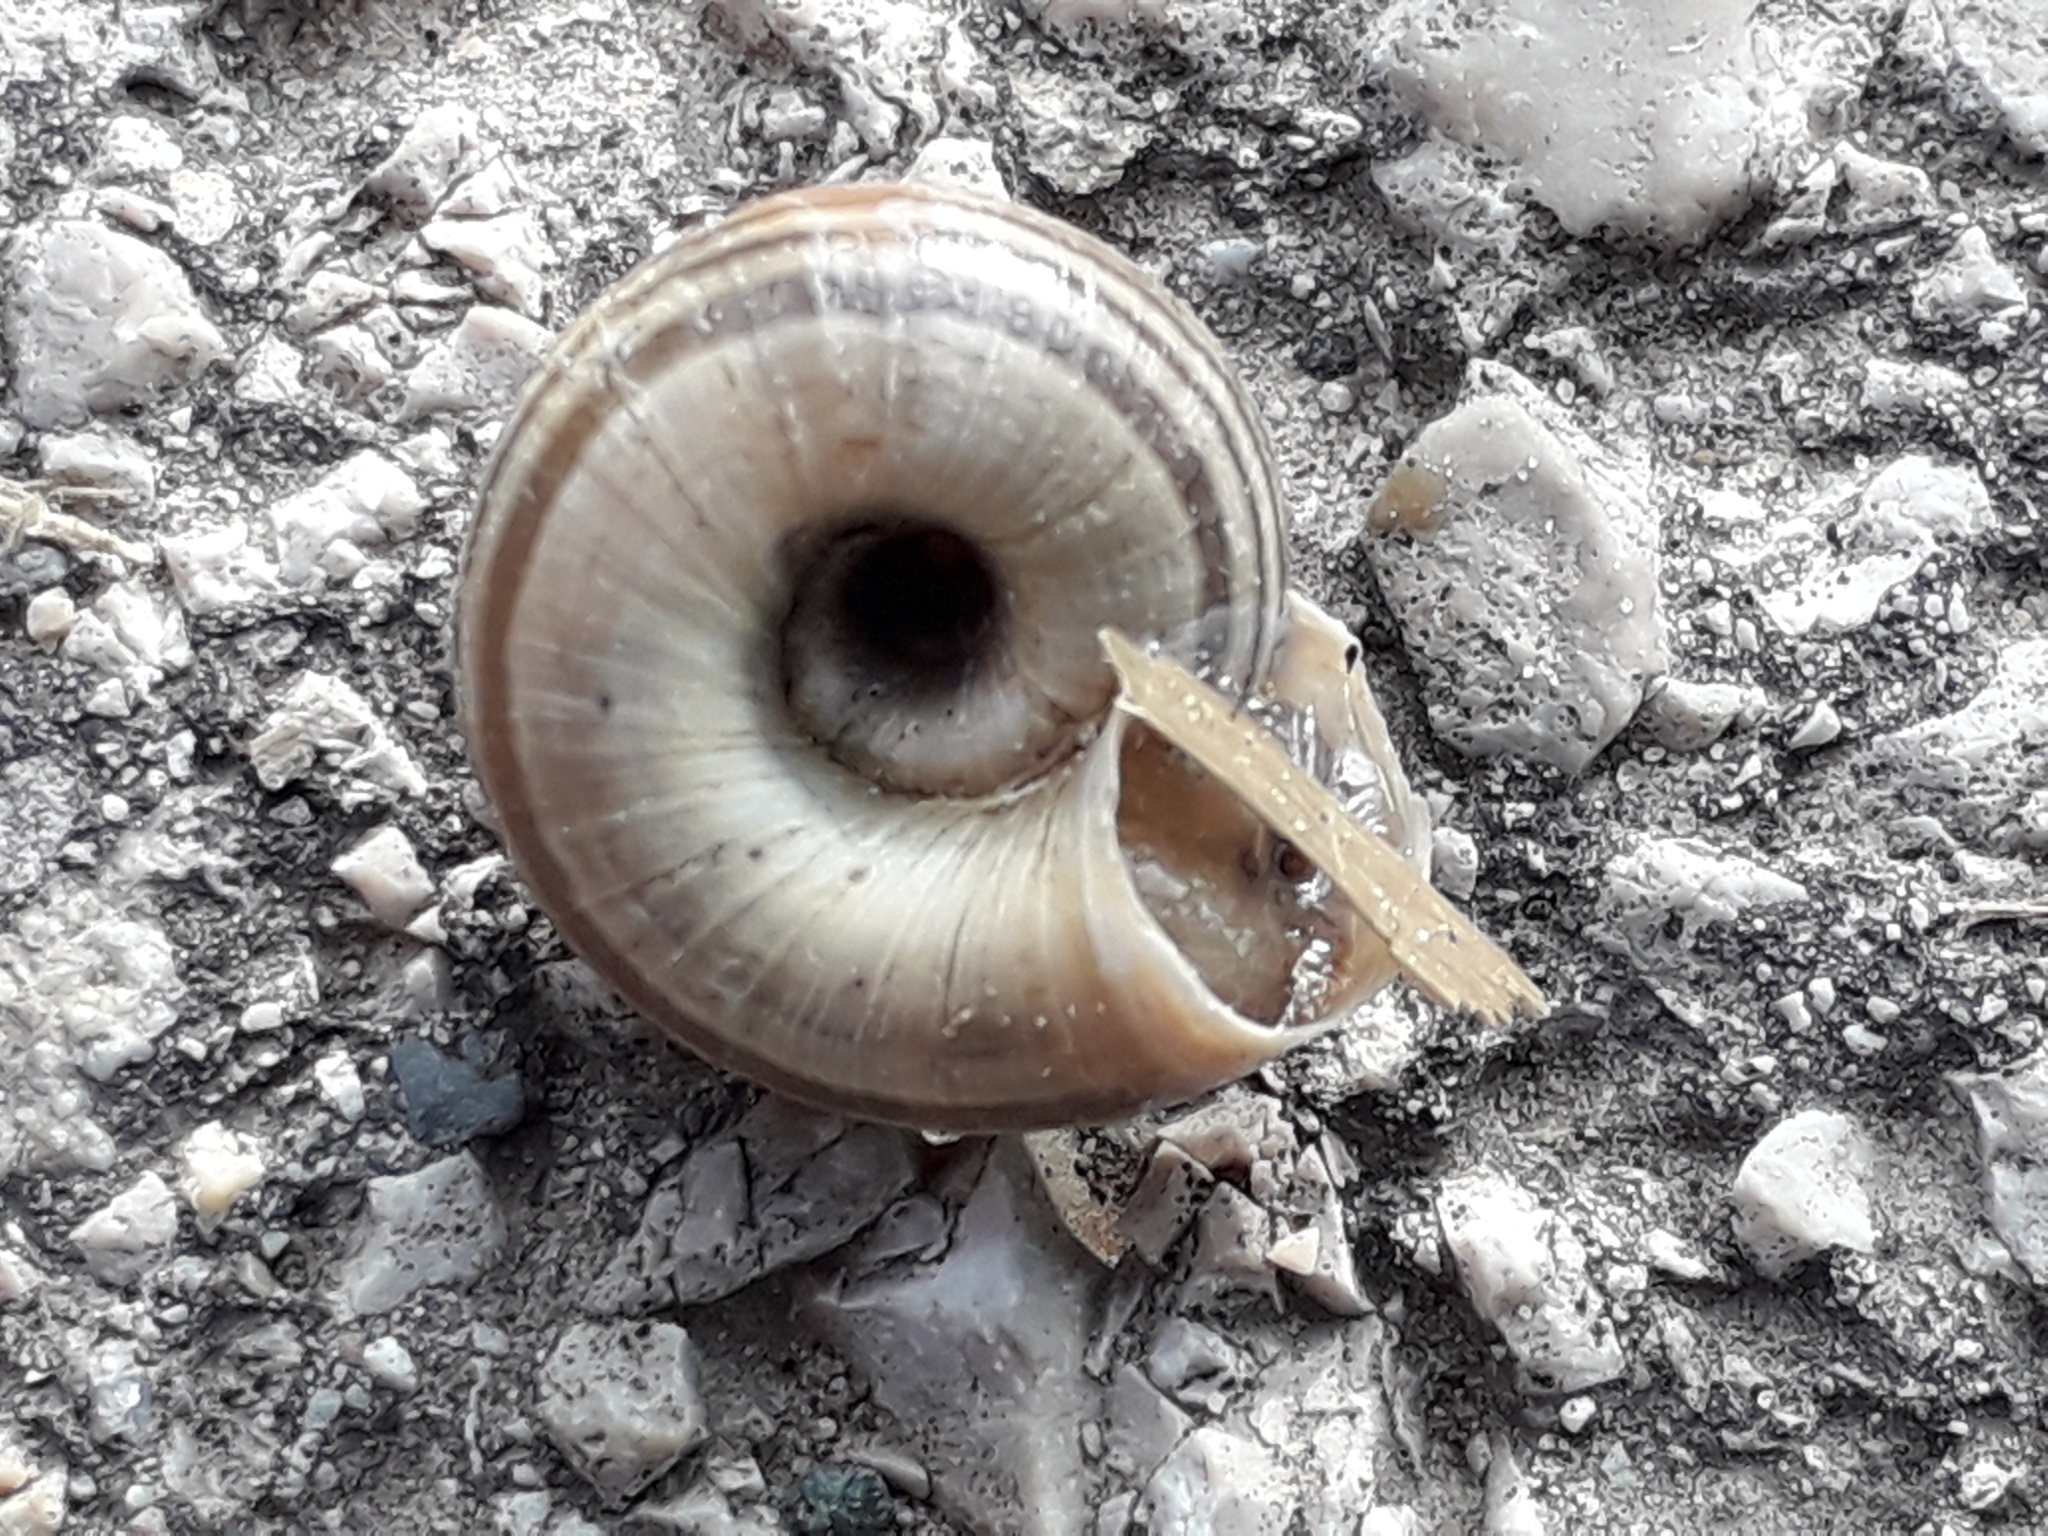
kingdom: Animalia
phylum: Mollusca
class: Gastropoda
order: Stylommatophora
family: Geomitridae
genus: Helicella
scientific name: Helicella itala
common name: Heath snail
